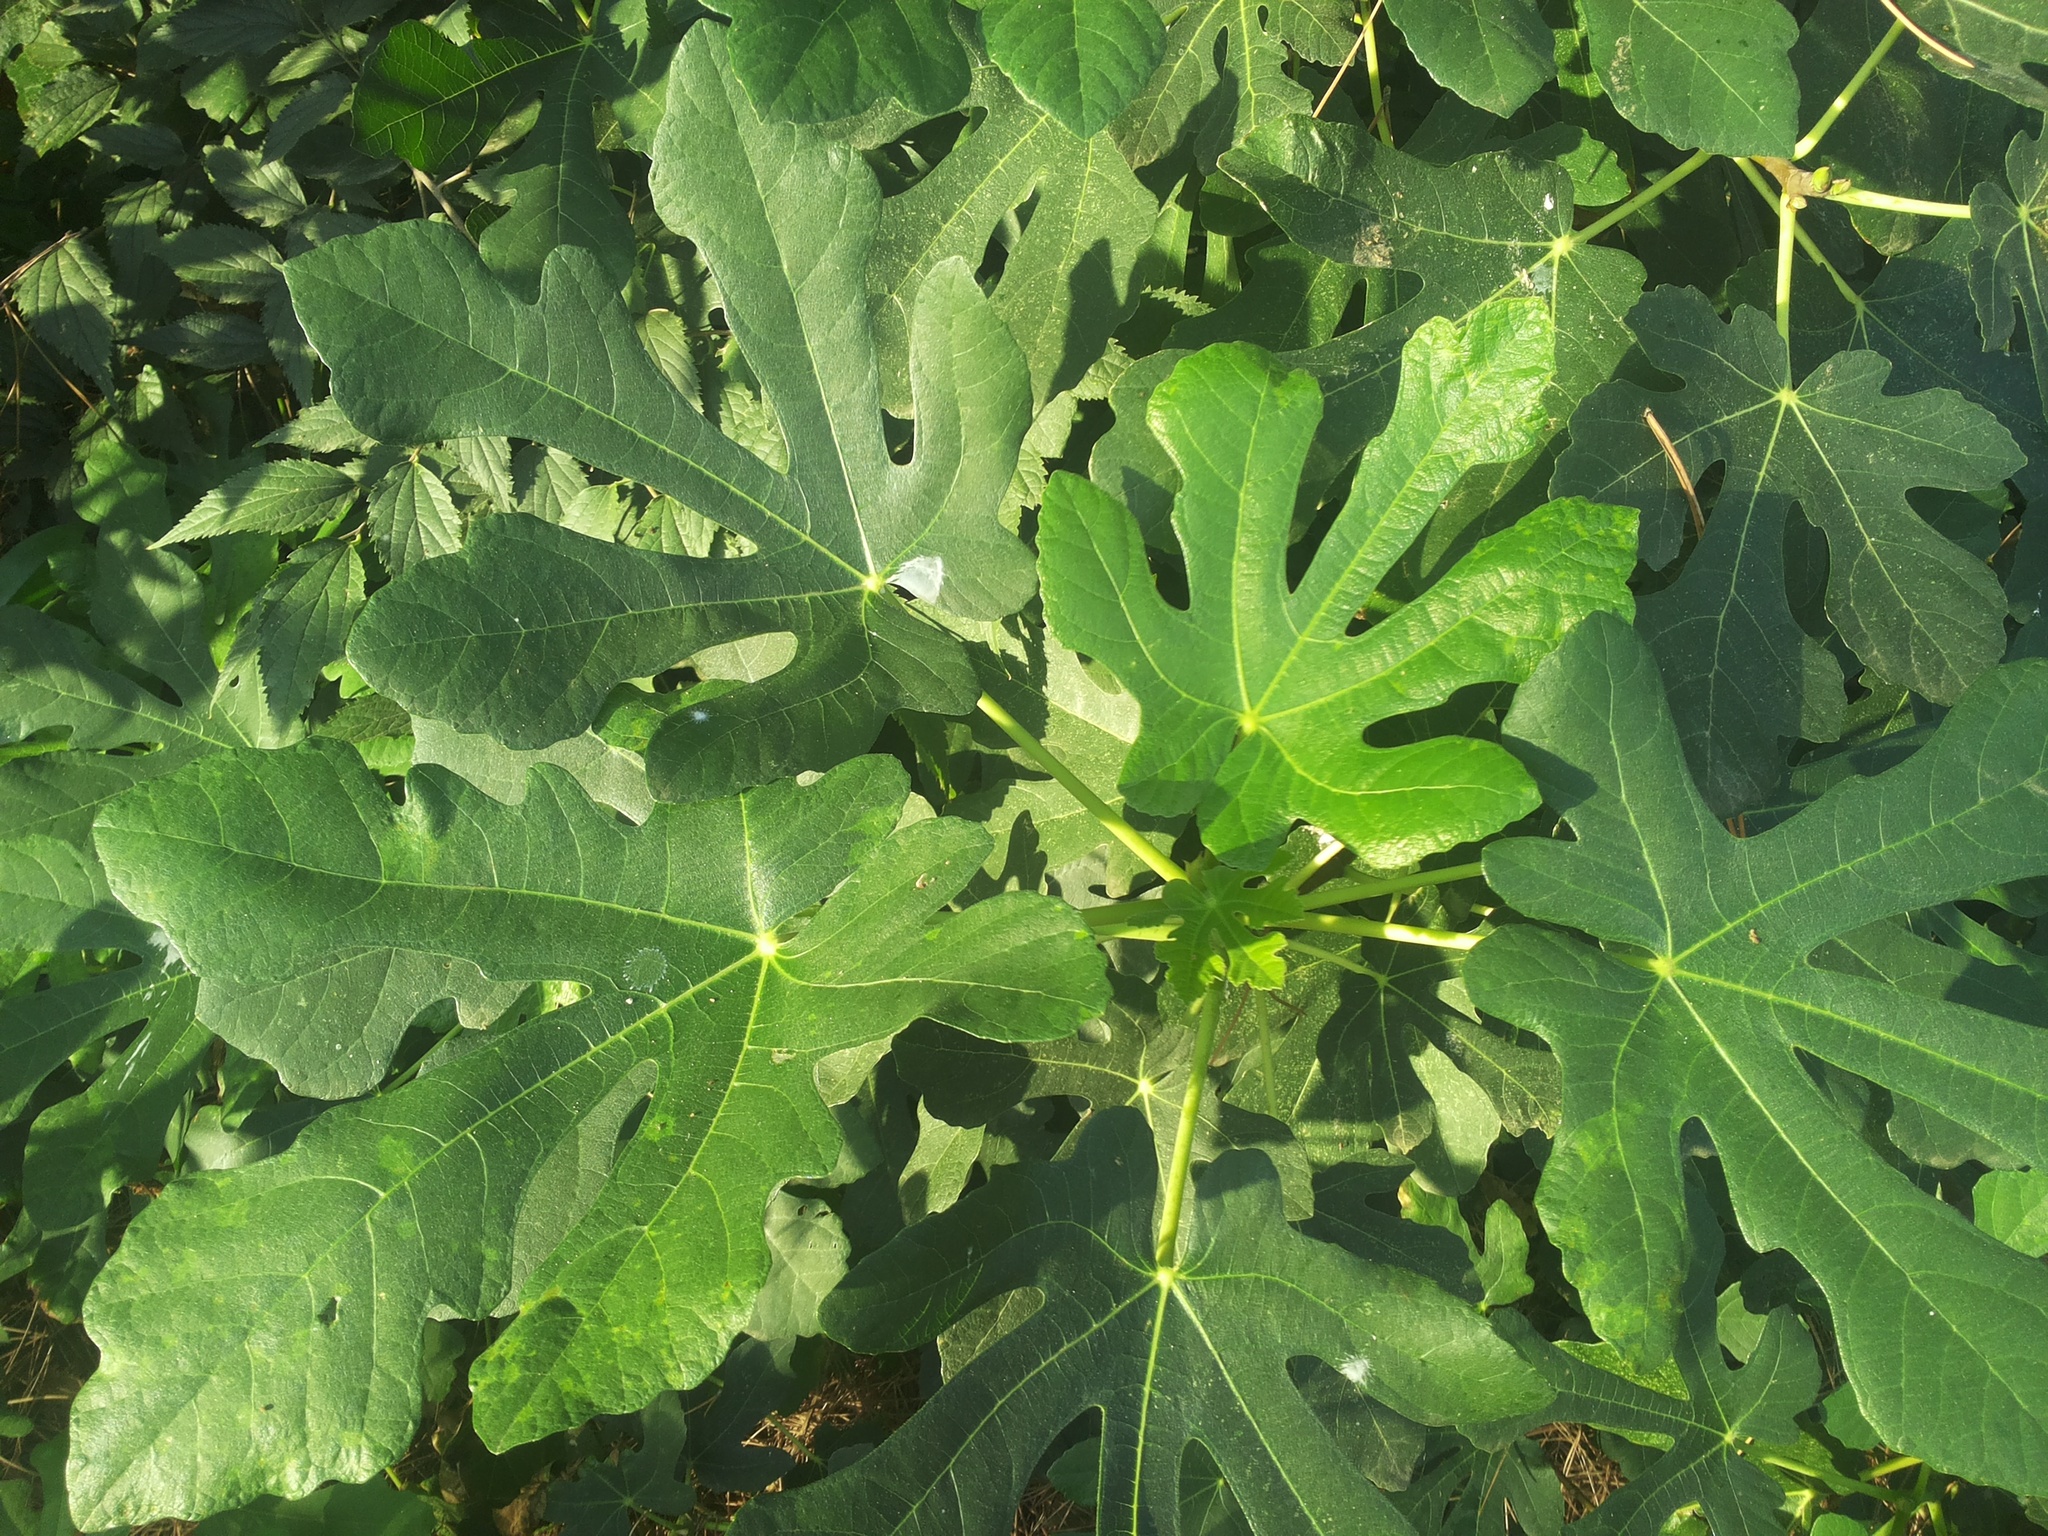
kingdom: Plantae
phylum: Tracheophyta
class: Magnoliopsida
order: Rosales
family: Moraceae
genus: Ficus
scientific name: Ficus carica
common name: Fig
